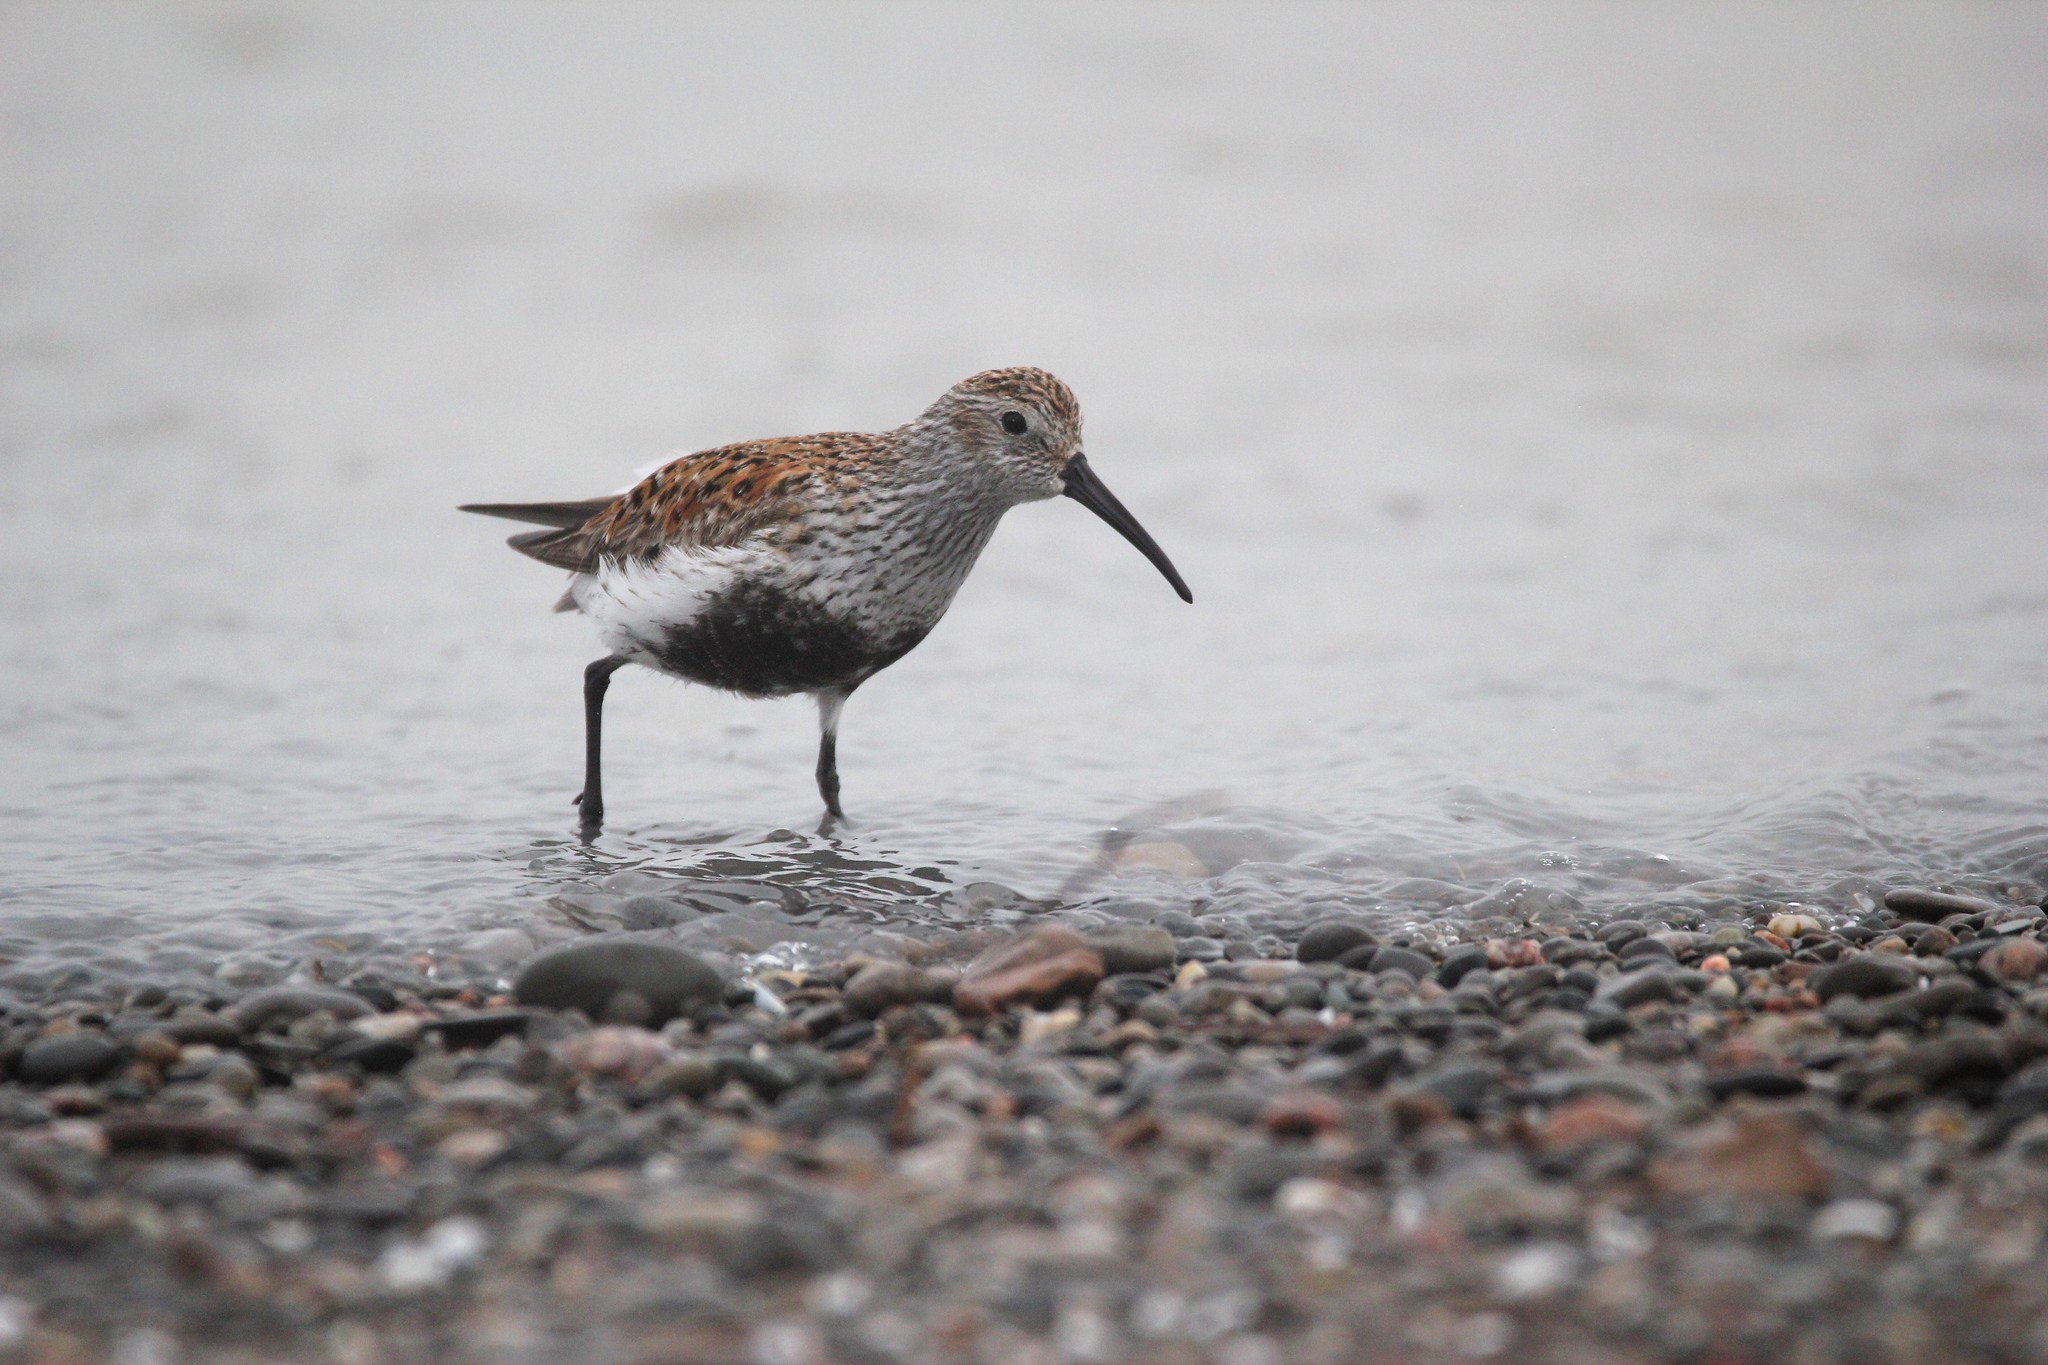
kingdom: Animalia
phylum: Chordata
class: Aves
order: Charadriiformes
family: Scolopacidae
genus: Calidris
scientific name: Calidris alpina
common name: Dunlin
